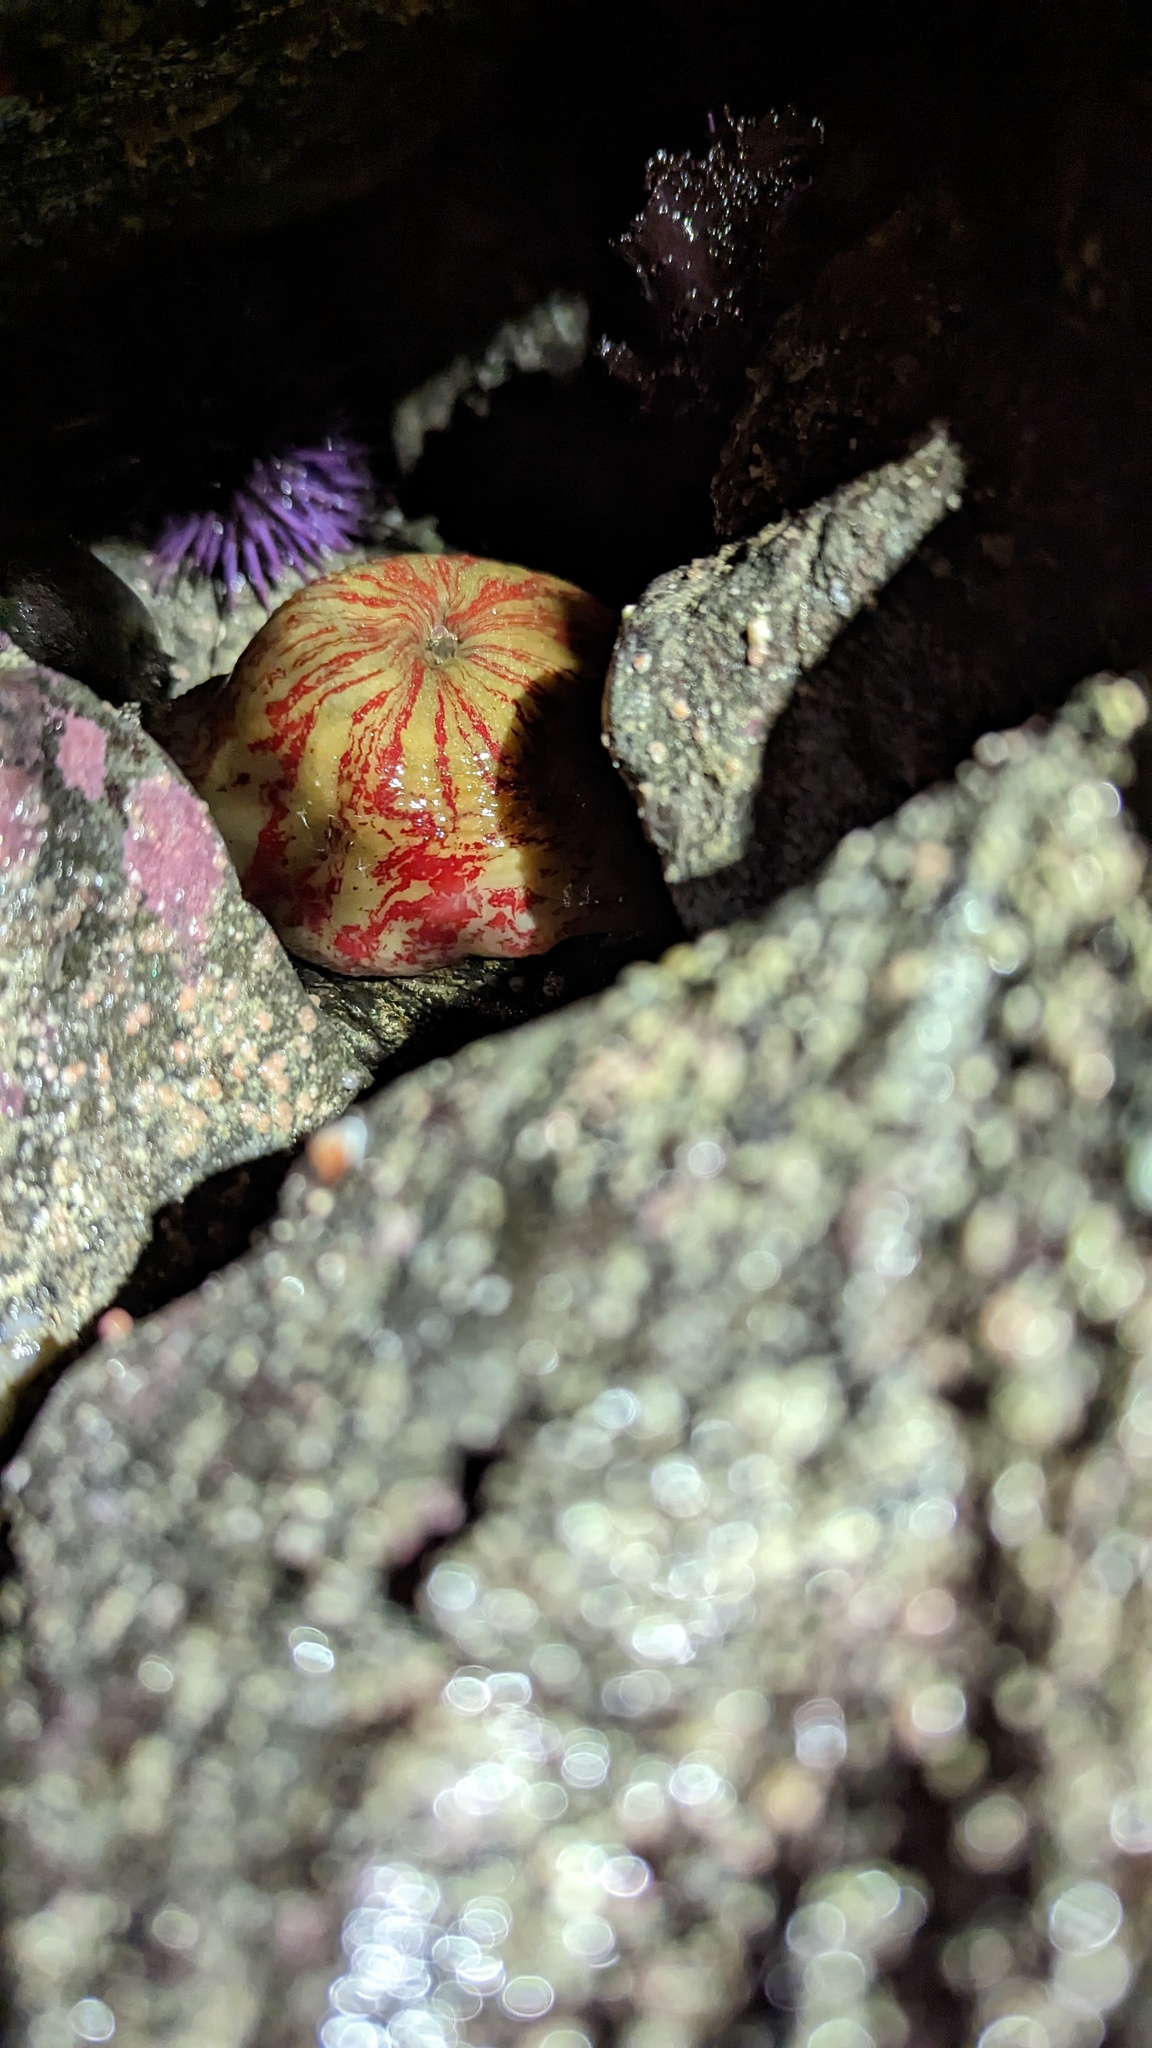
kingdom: Animalia
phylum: Cnidaria
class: Anthozoa
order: Actiniaria
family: Actiniidae
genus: Urticina
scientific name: Urticina grebelnyi
